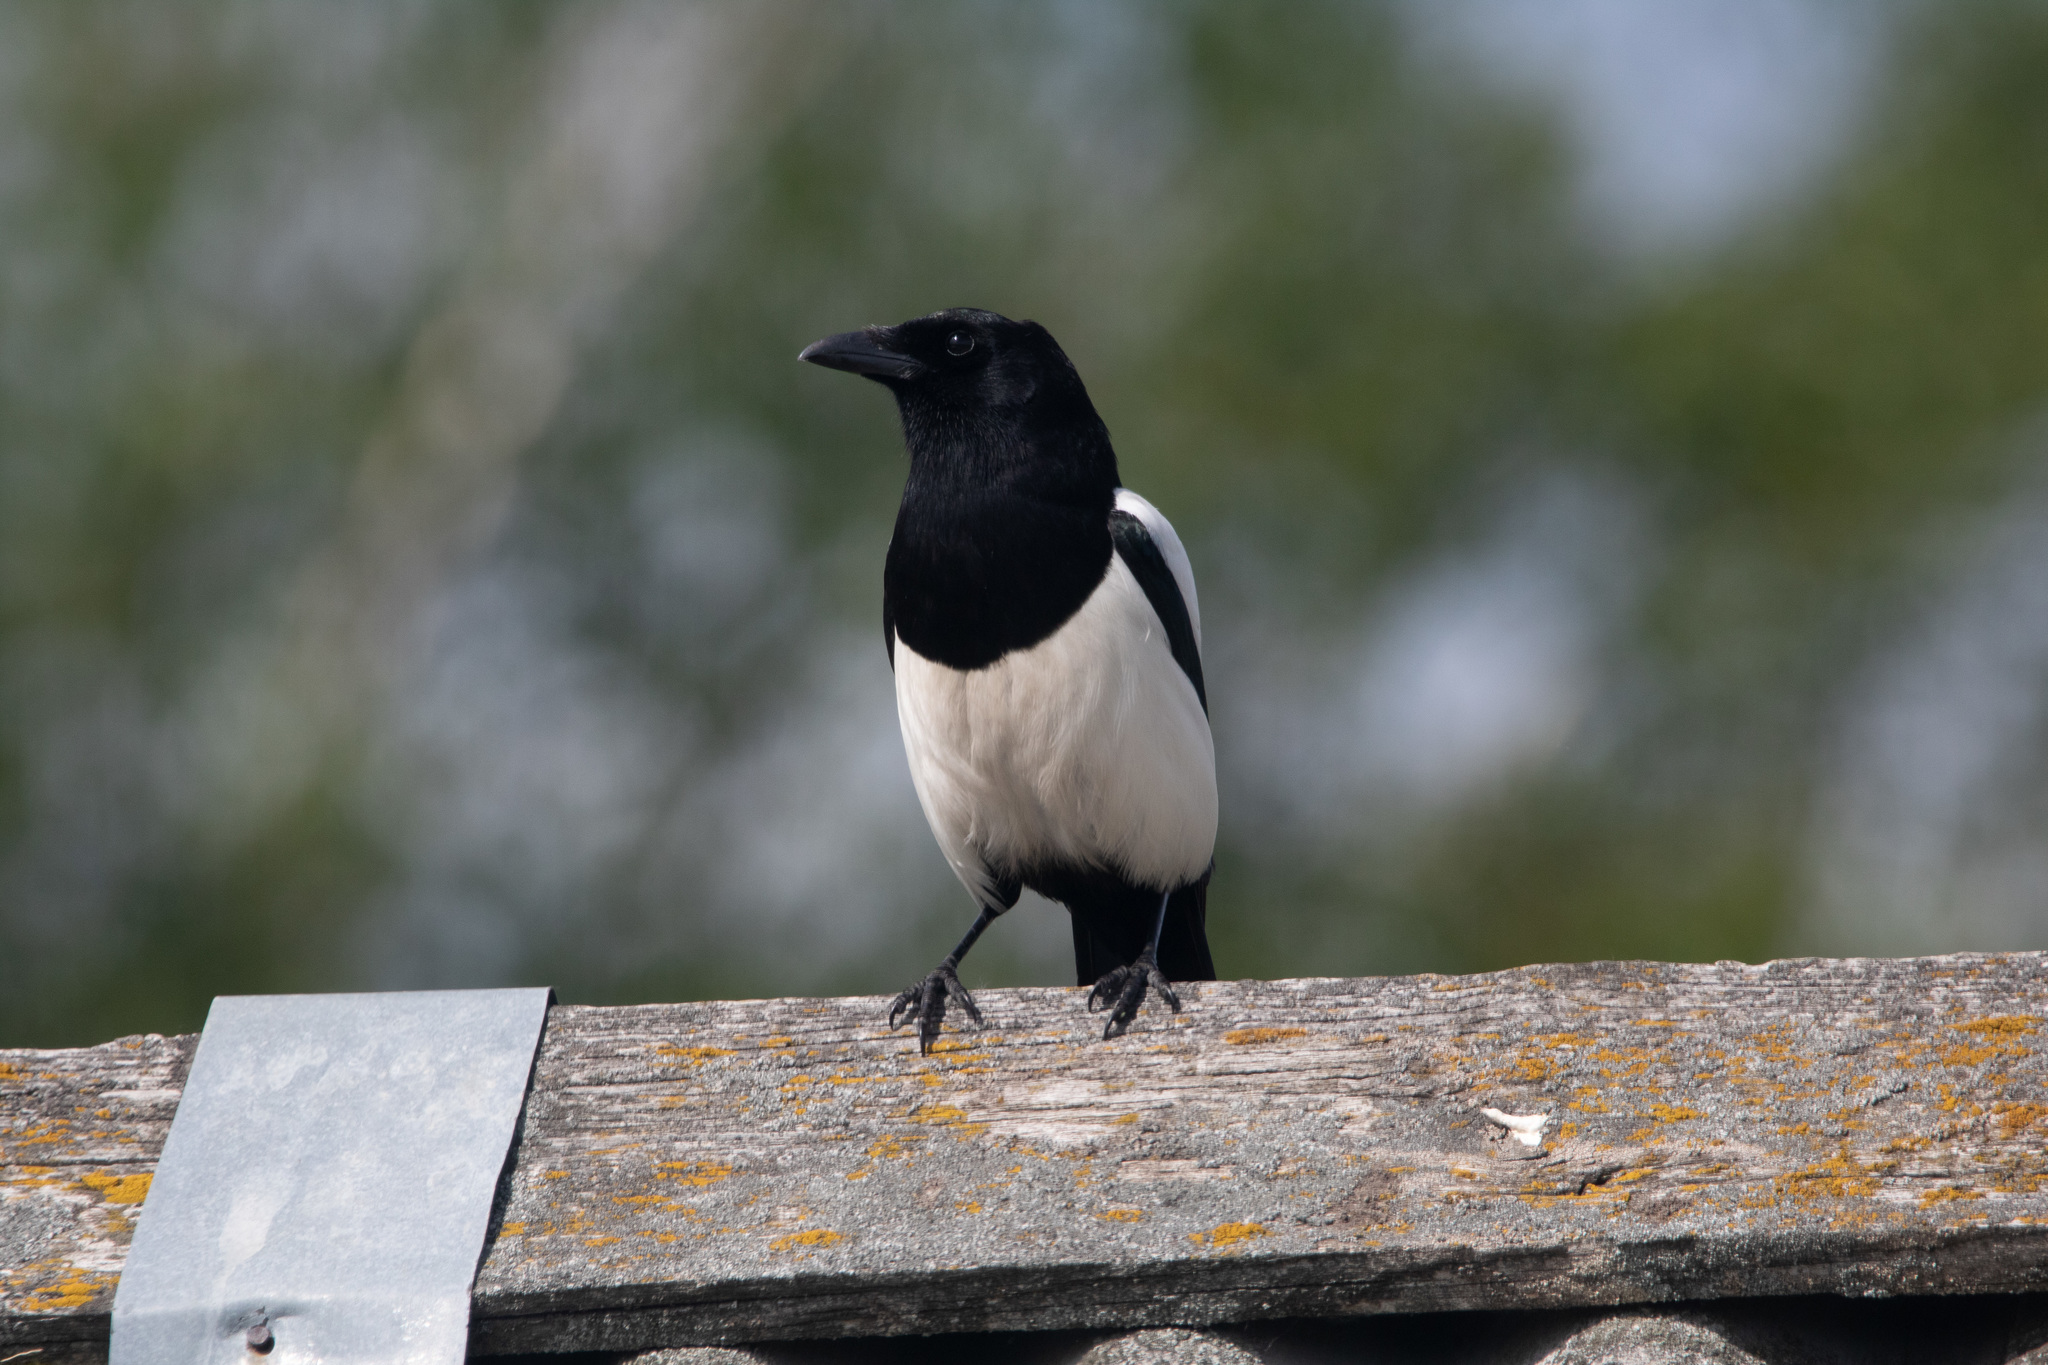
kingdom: Animalia
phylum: Chordata
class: Aves
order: Passeriformes
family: Corvidae
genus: Pica
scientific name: Pica pica
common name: Eurasian magpie
